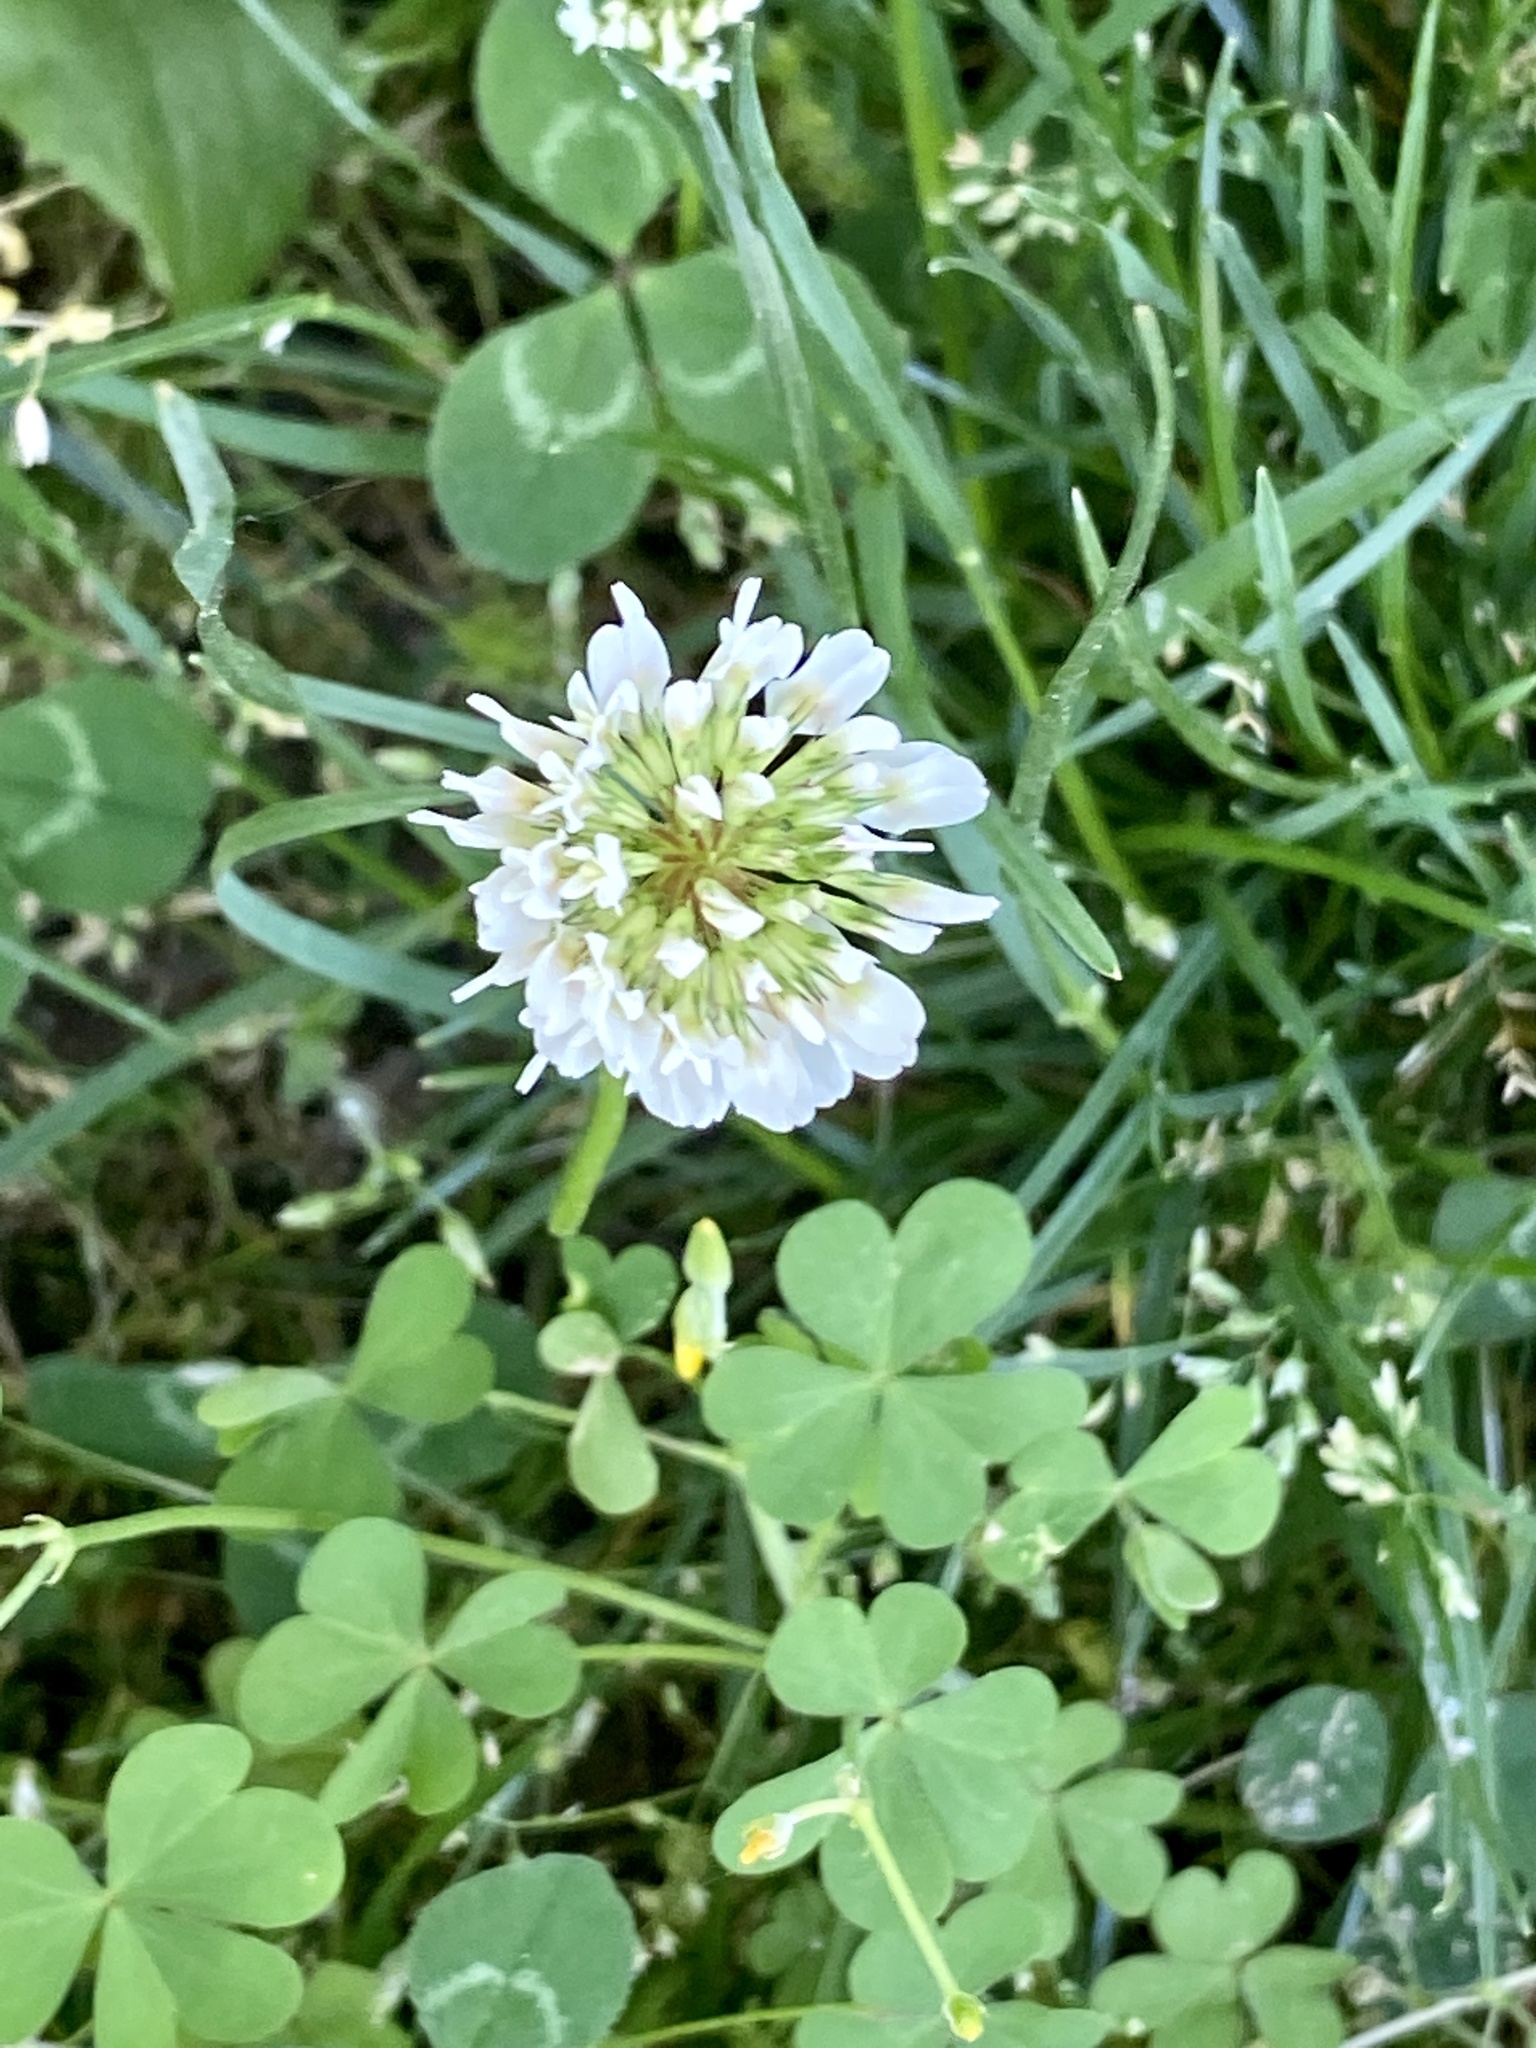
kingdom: Plantae
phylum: Tracheophyta
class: Magnoliopsida
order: Fabales
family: Fabaceae
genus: Trifolium
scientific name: Trifolium repens
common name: White clover
